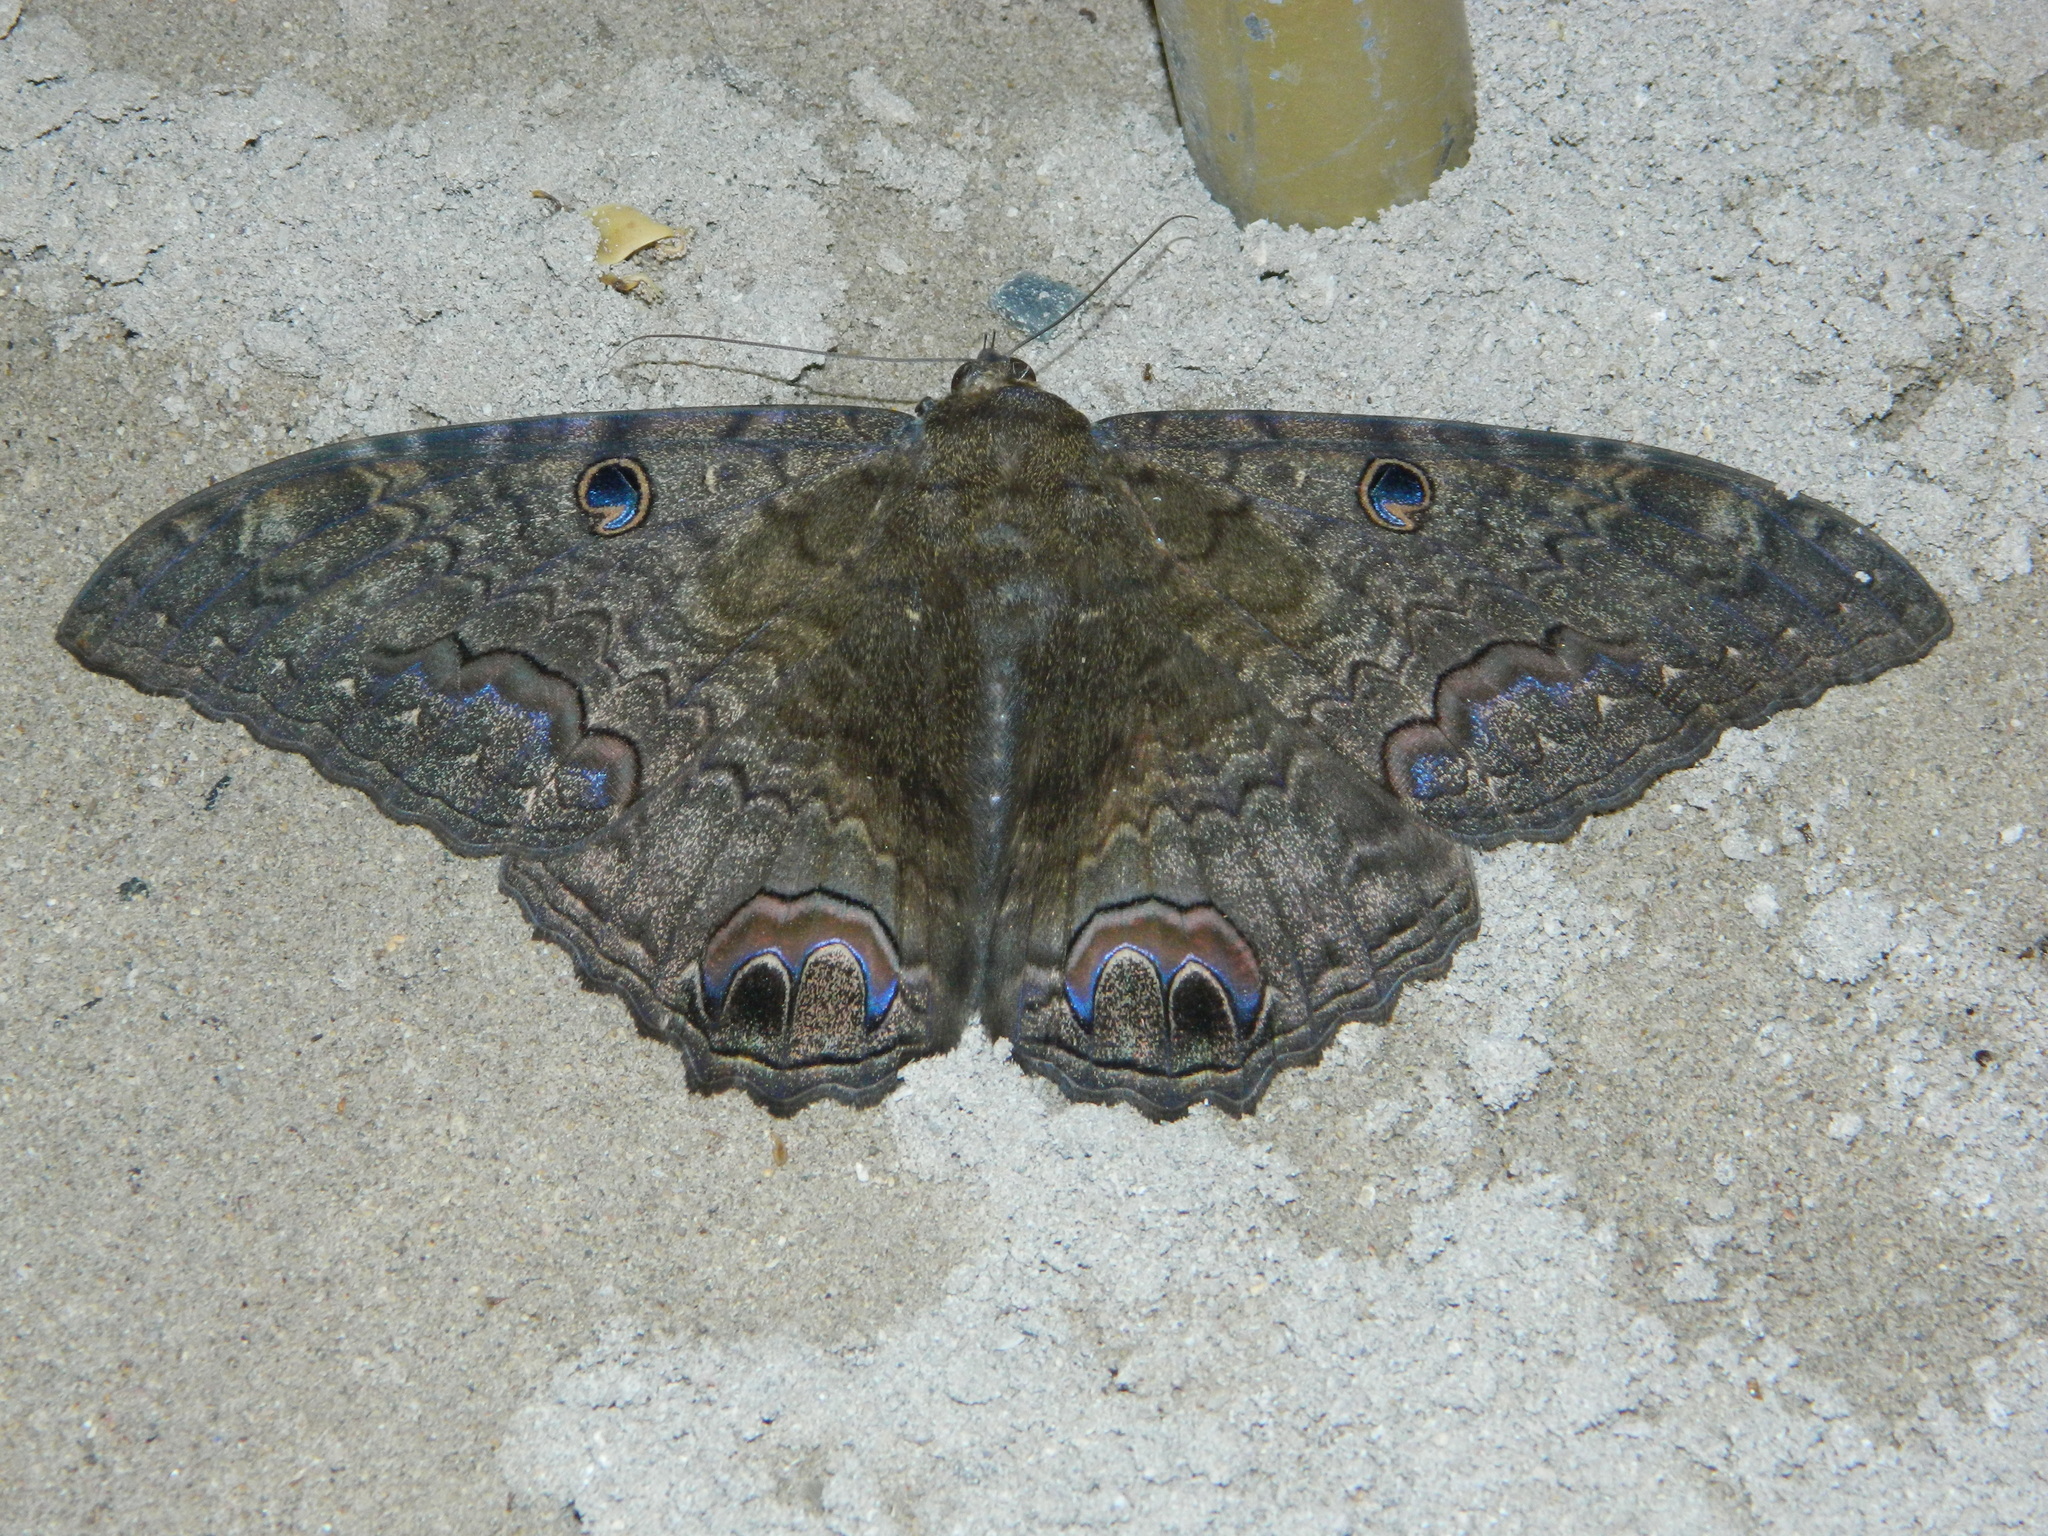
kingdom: Animalia
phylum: Arthropoda
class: Insecta
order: Lepidoptera
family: Erebidae
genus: Ascalapha
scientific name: Ascalapha odorata
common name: Black witch
